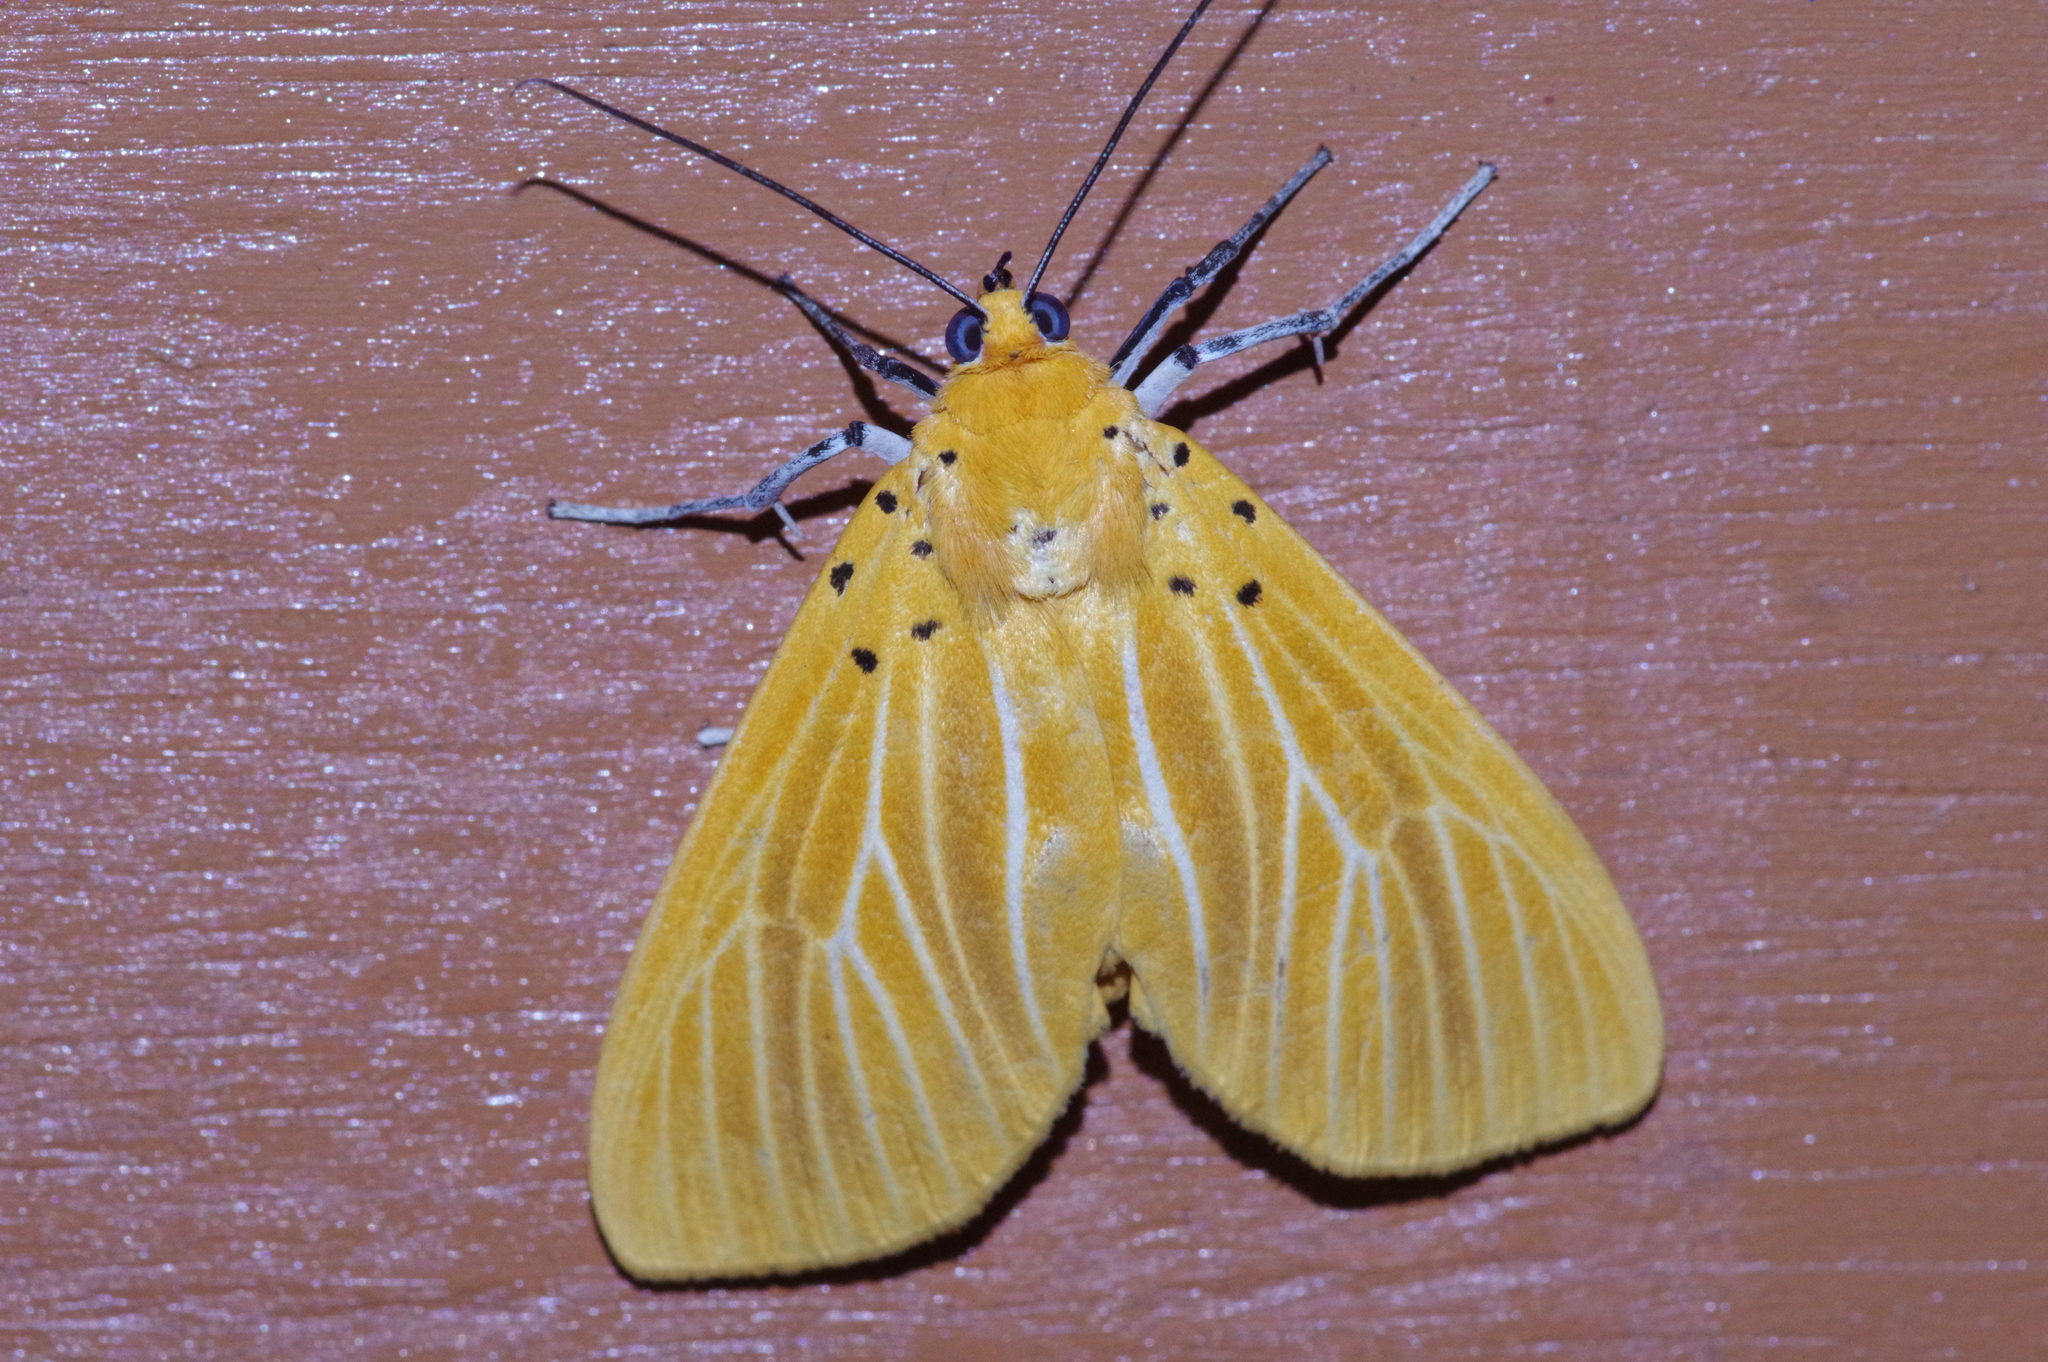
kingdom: Animalia
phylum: Arthropoda
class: Insecta
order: Lepidoptera
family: Erebidae
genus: Asota
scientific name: Asota egens
